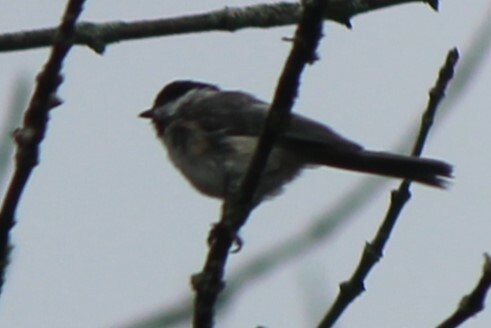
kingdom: Animalia
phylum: Chordata
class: Aves
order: Passeriformes
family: Paridae
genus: Poecile
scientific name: Poecile atricapillus
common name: Black-capped chickadee
